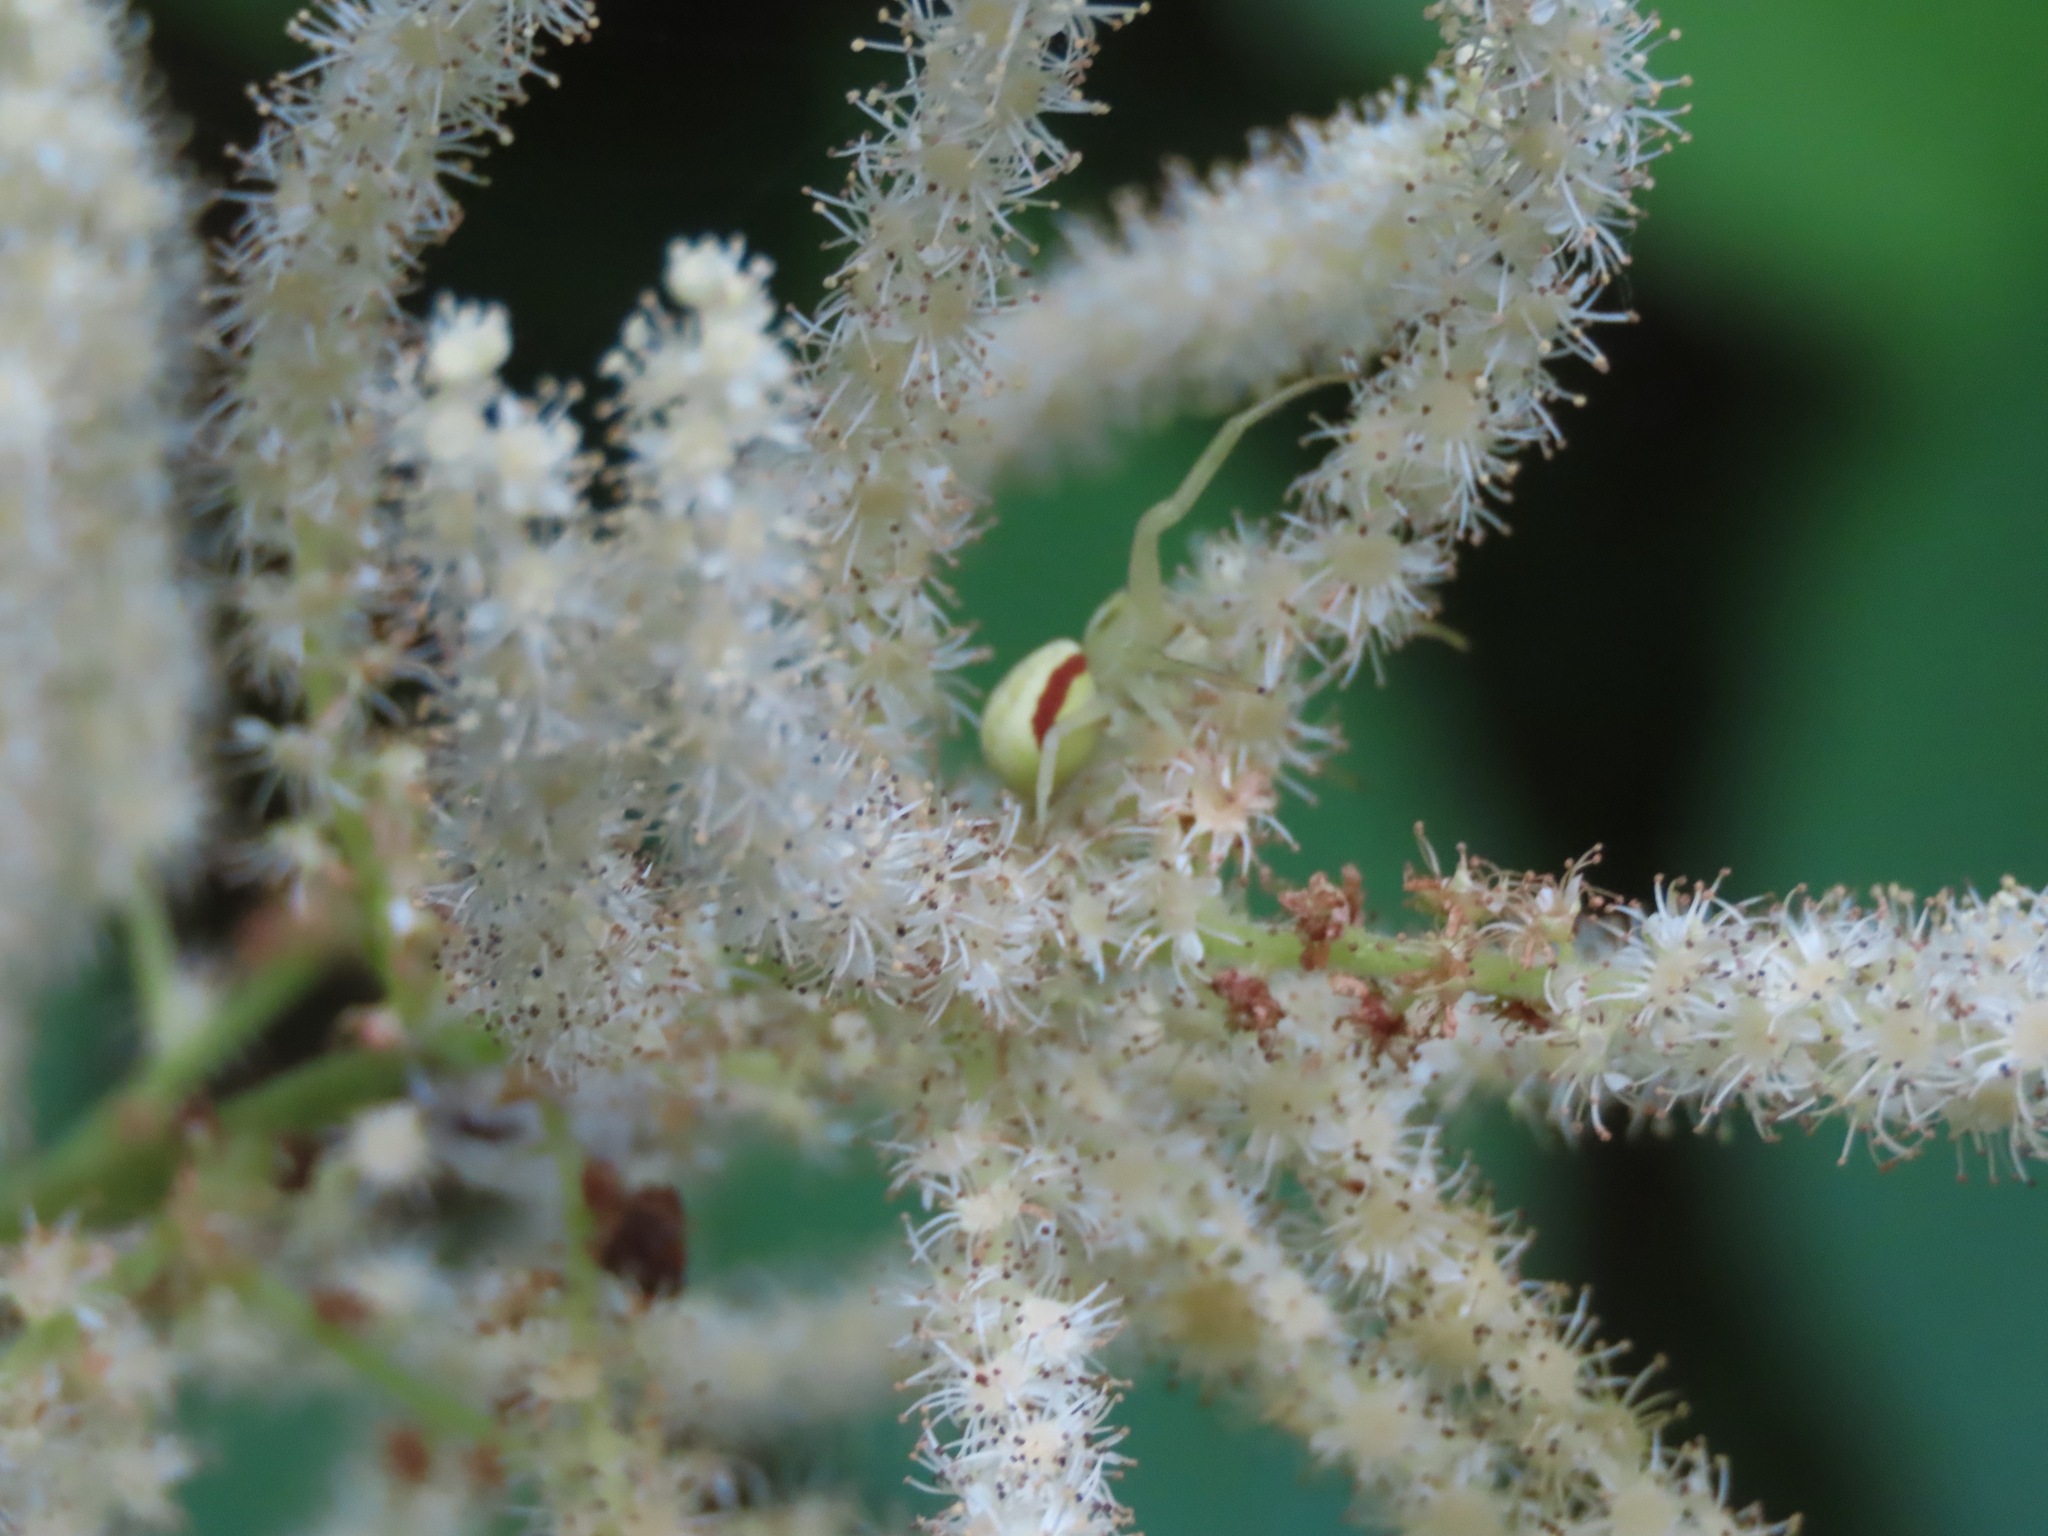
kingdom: Animalia
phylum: Arthropoda
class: Arachnida
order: Araneae
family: Thomisidae
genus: Misumena
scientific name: Misumena vatia
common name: Goldenrod crab spider
